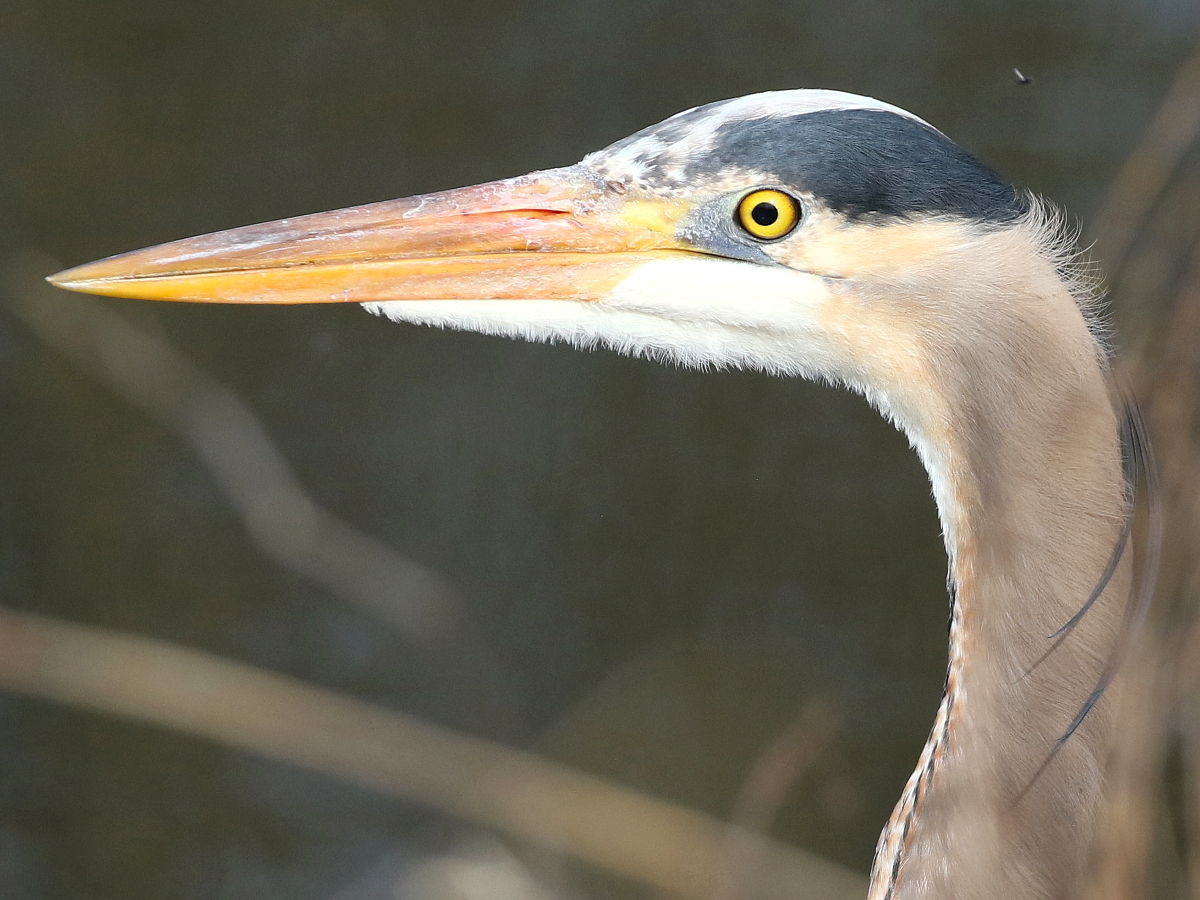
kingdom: Animalia
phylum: Chordata
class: Aves
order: Pelecaniformes
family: Ardeidae
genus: Ardea
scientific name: Ardea herodias
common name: Great blue heron
